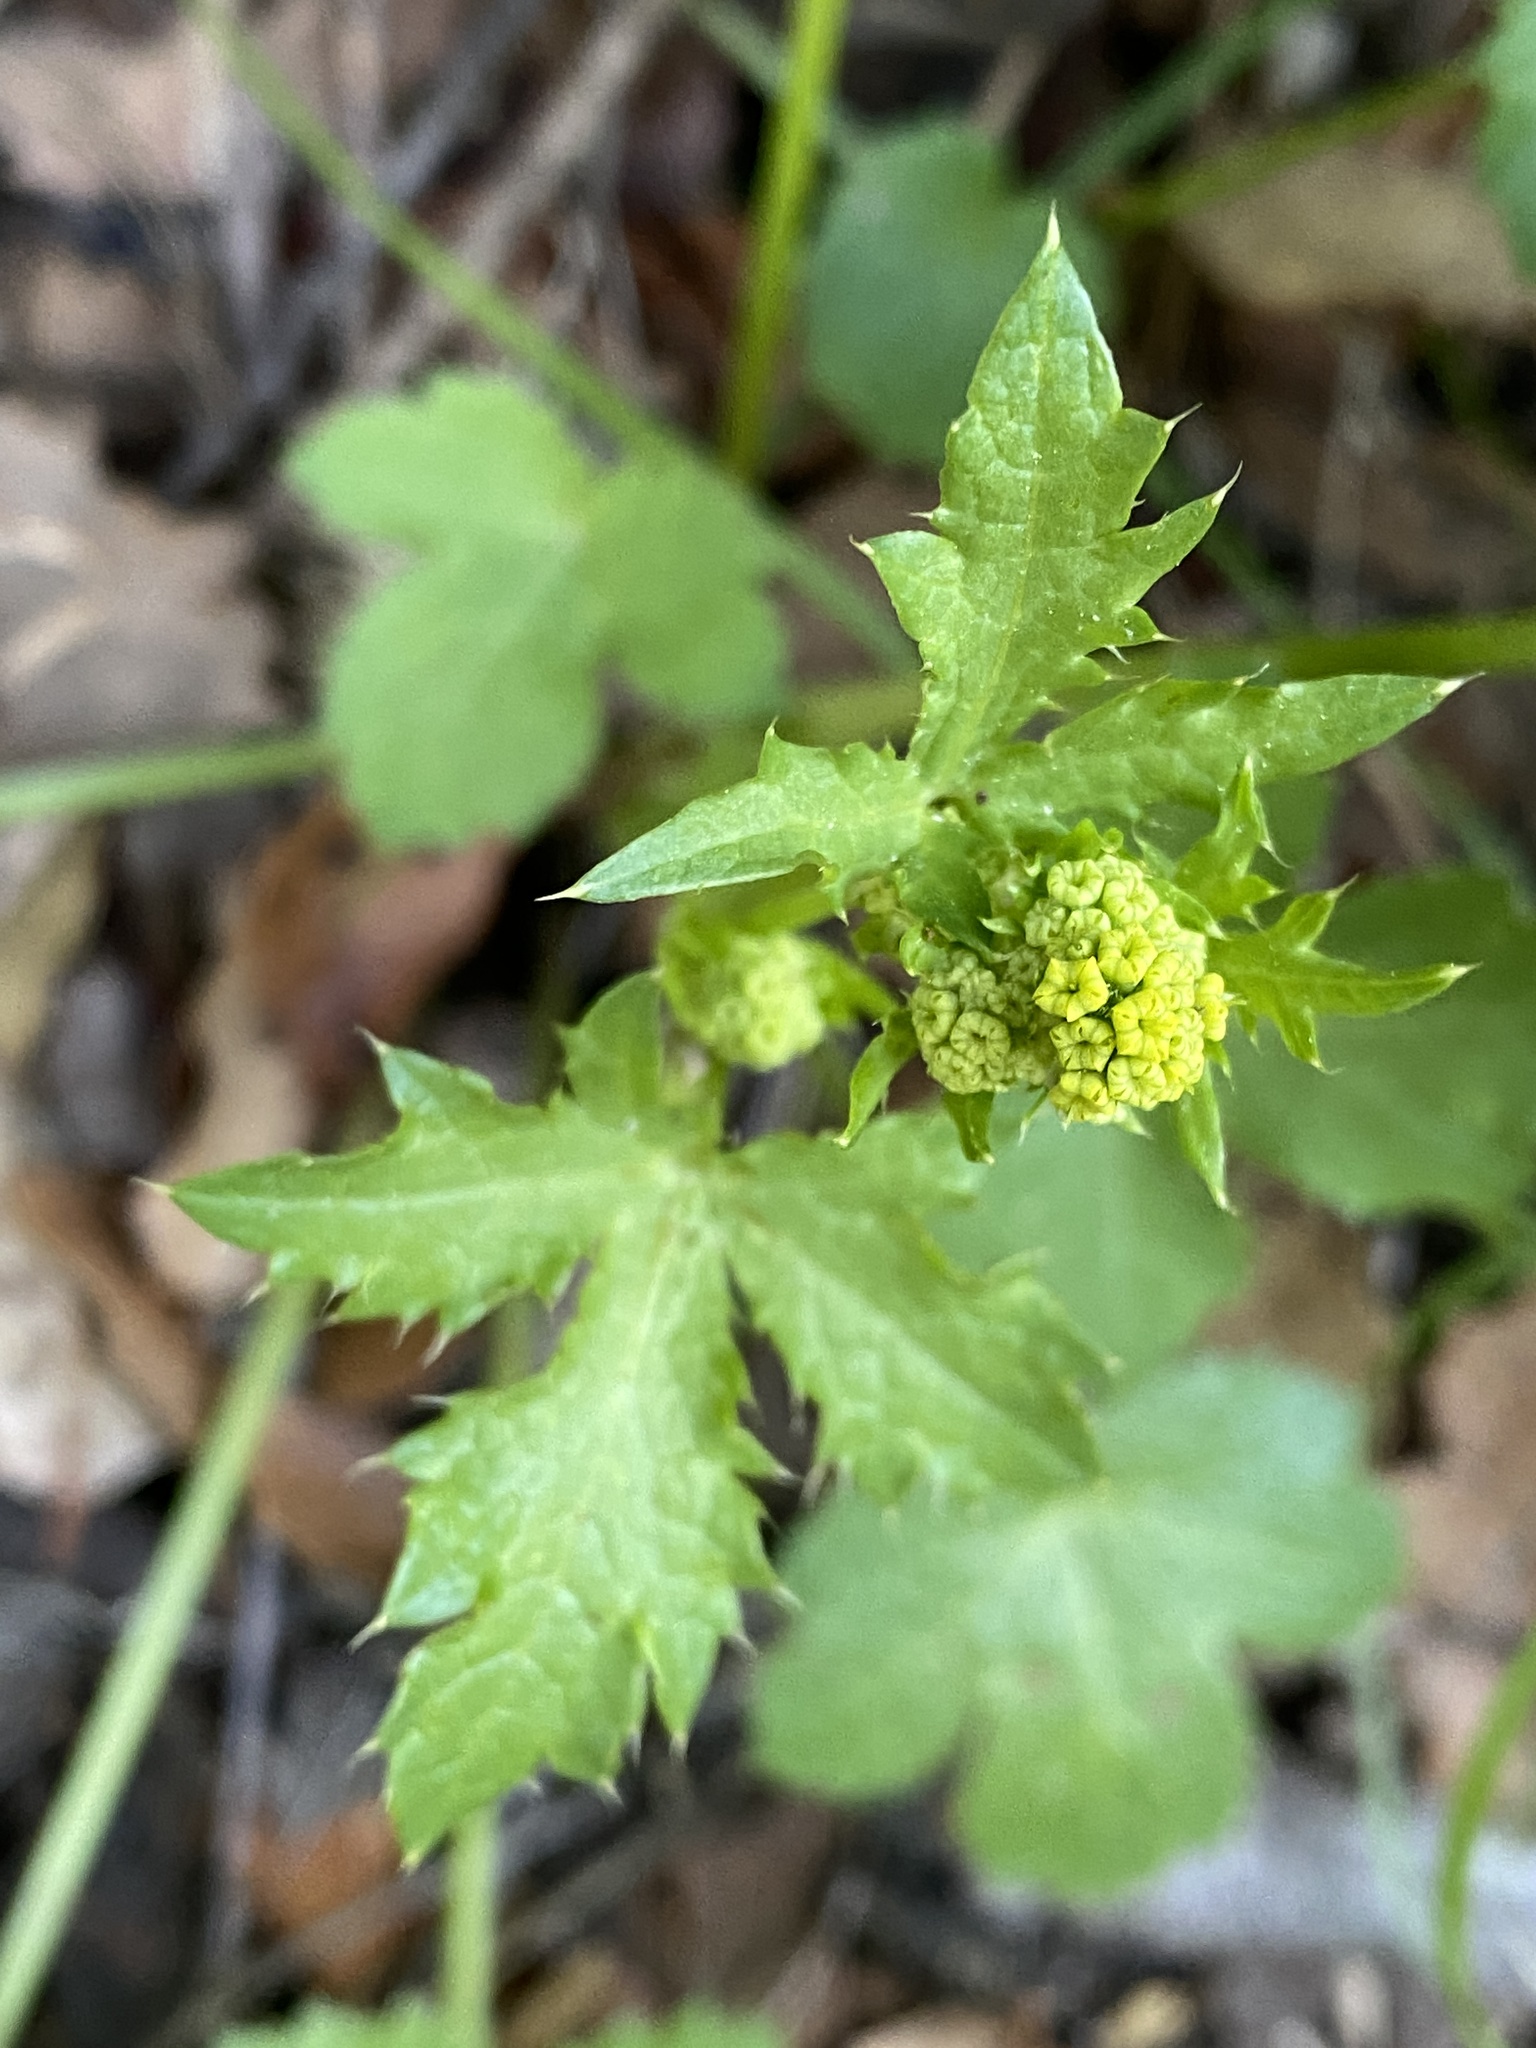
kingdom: Plantae
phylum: Tracheophyta
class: Magnoliopsida
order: Apiales
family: Apiaceae
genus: Sanicula
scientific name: Sanicula crassicaulis
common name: Western snakeroot
